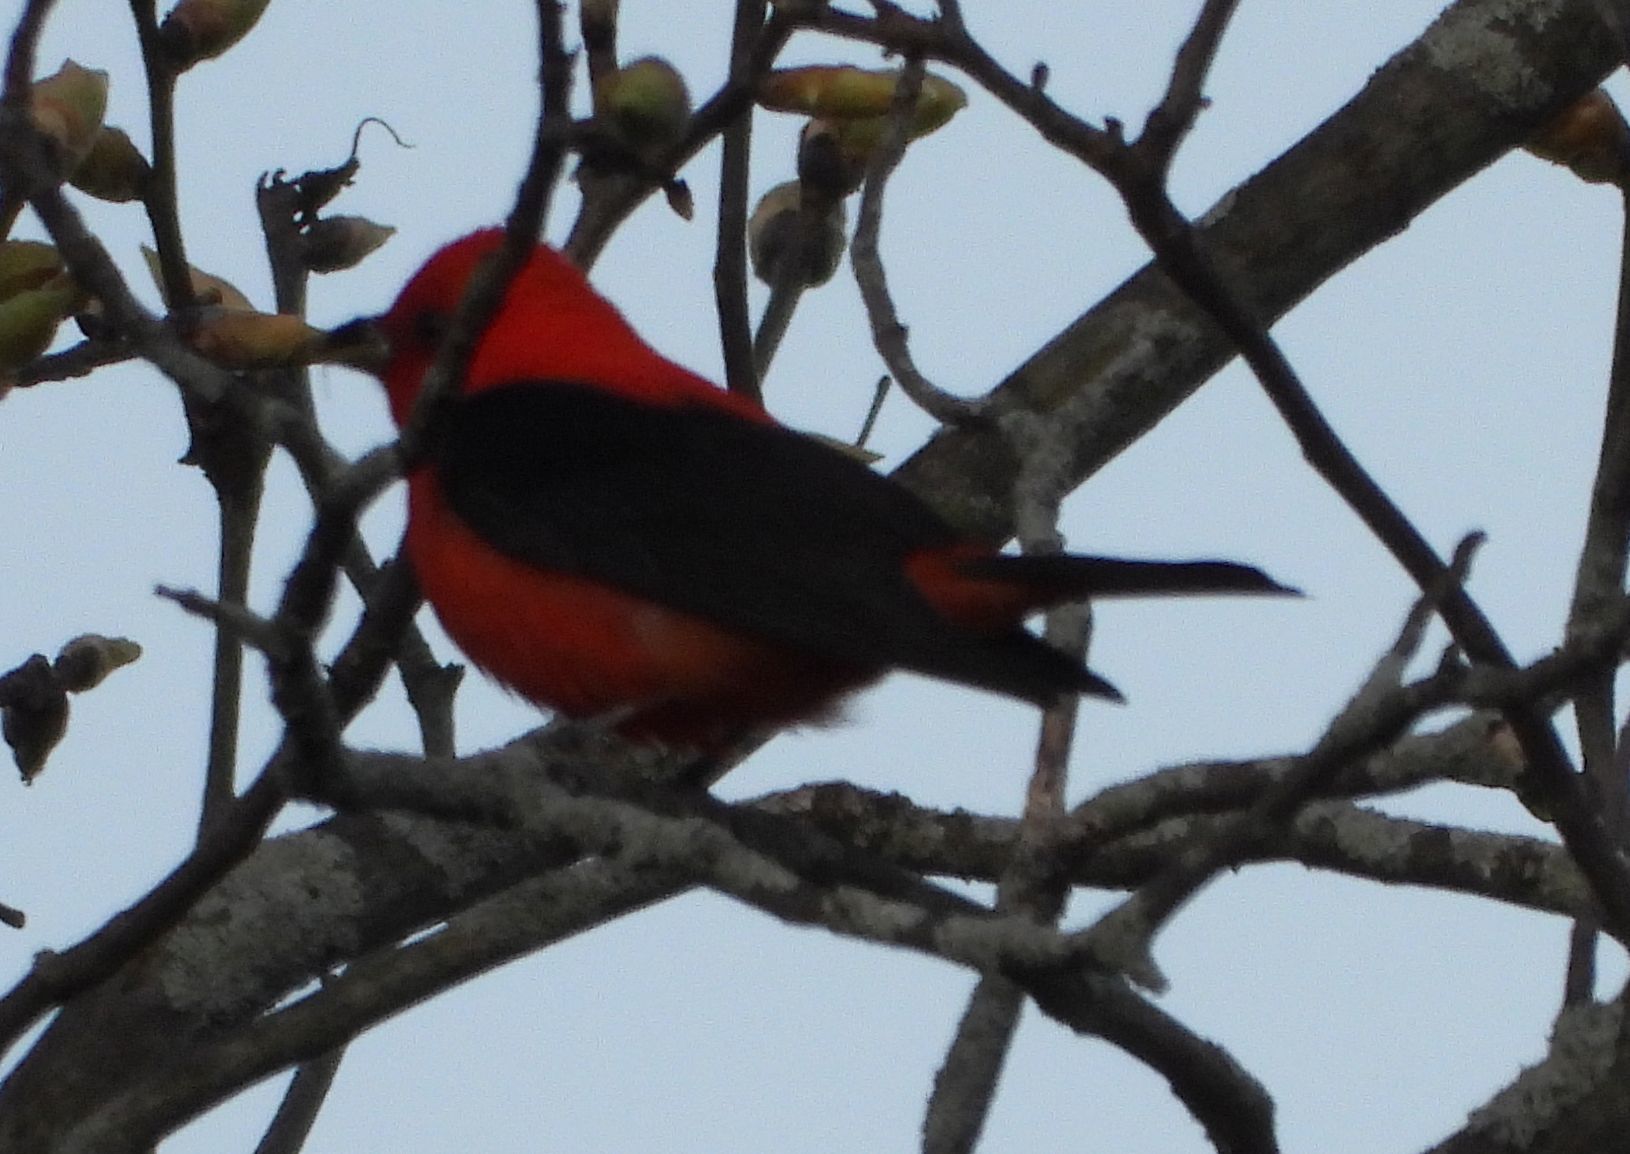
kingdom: Animalia
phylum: Chordata
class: Aves
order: Passeriformes
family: Cardinalidae
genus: Piranga
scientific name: Piranga olivacea
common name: Scarlet tanager
